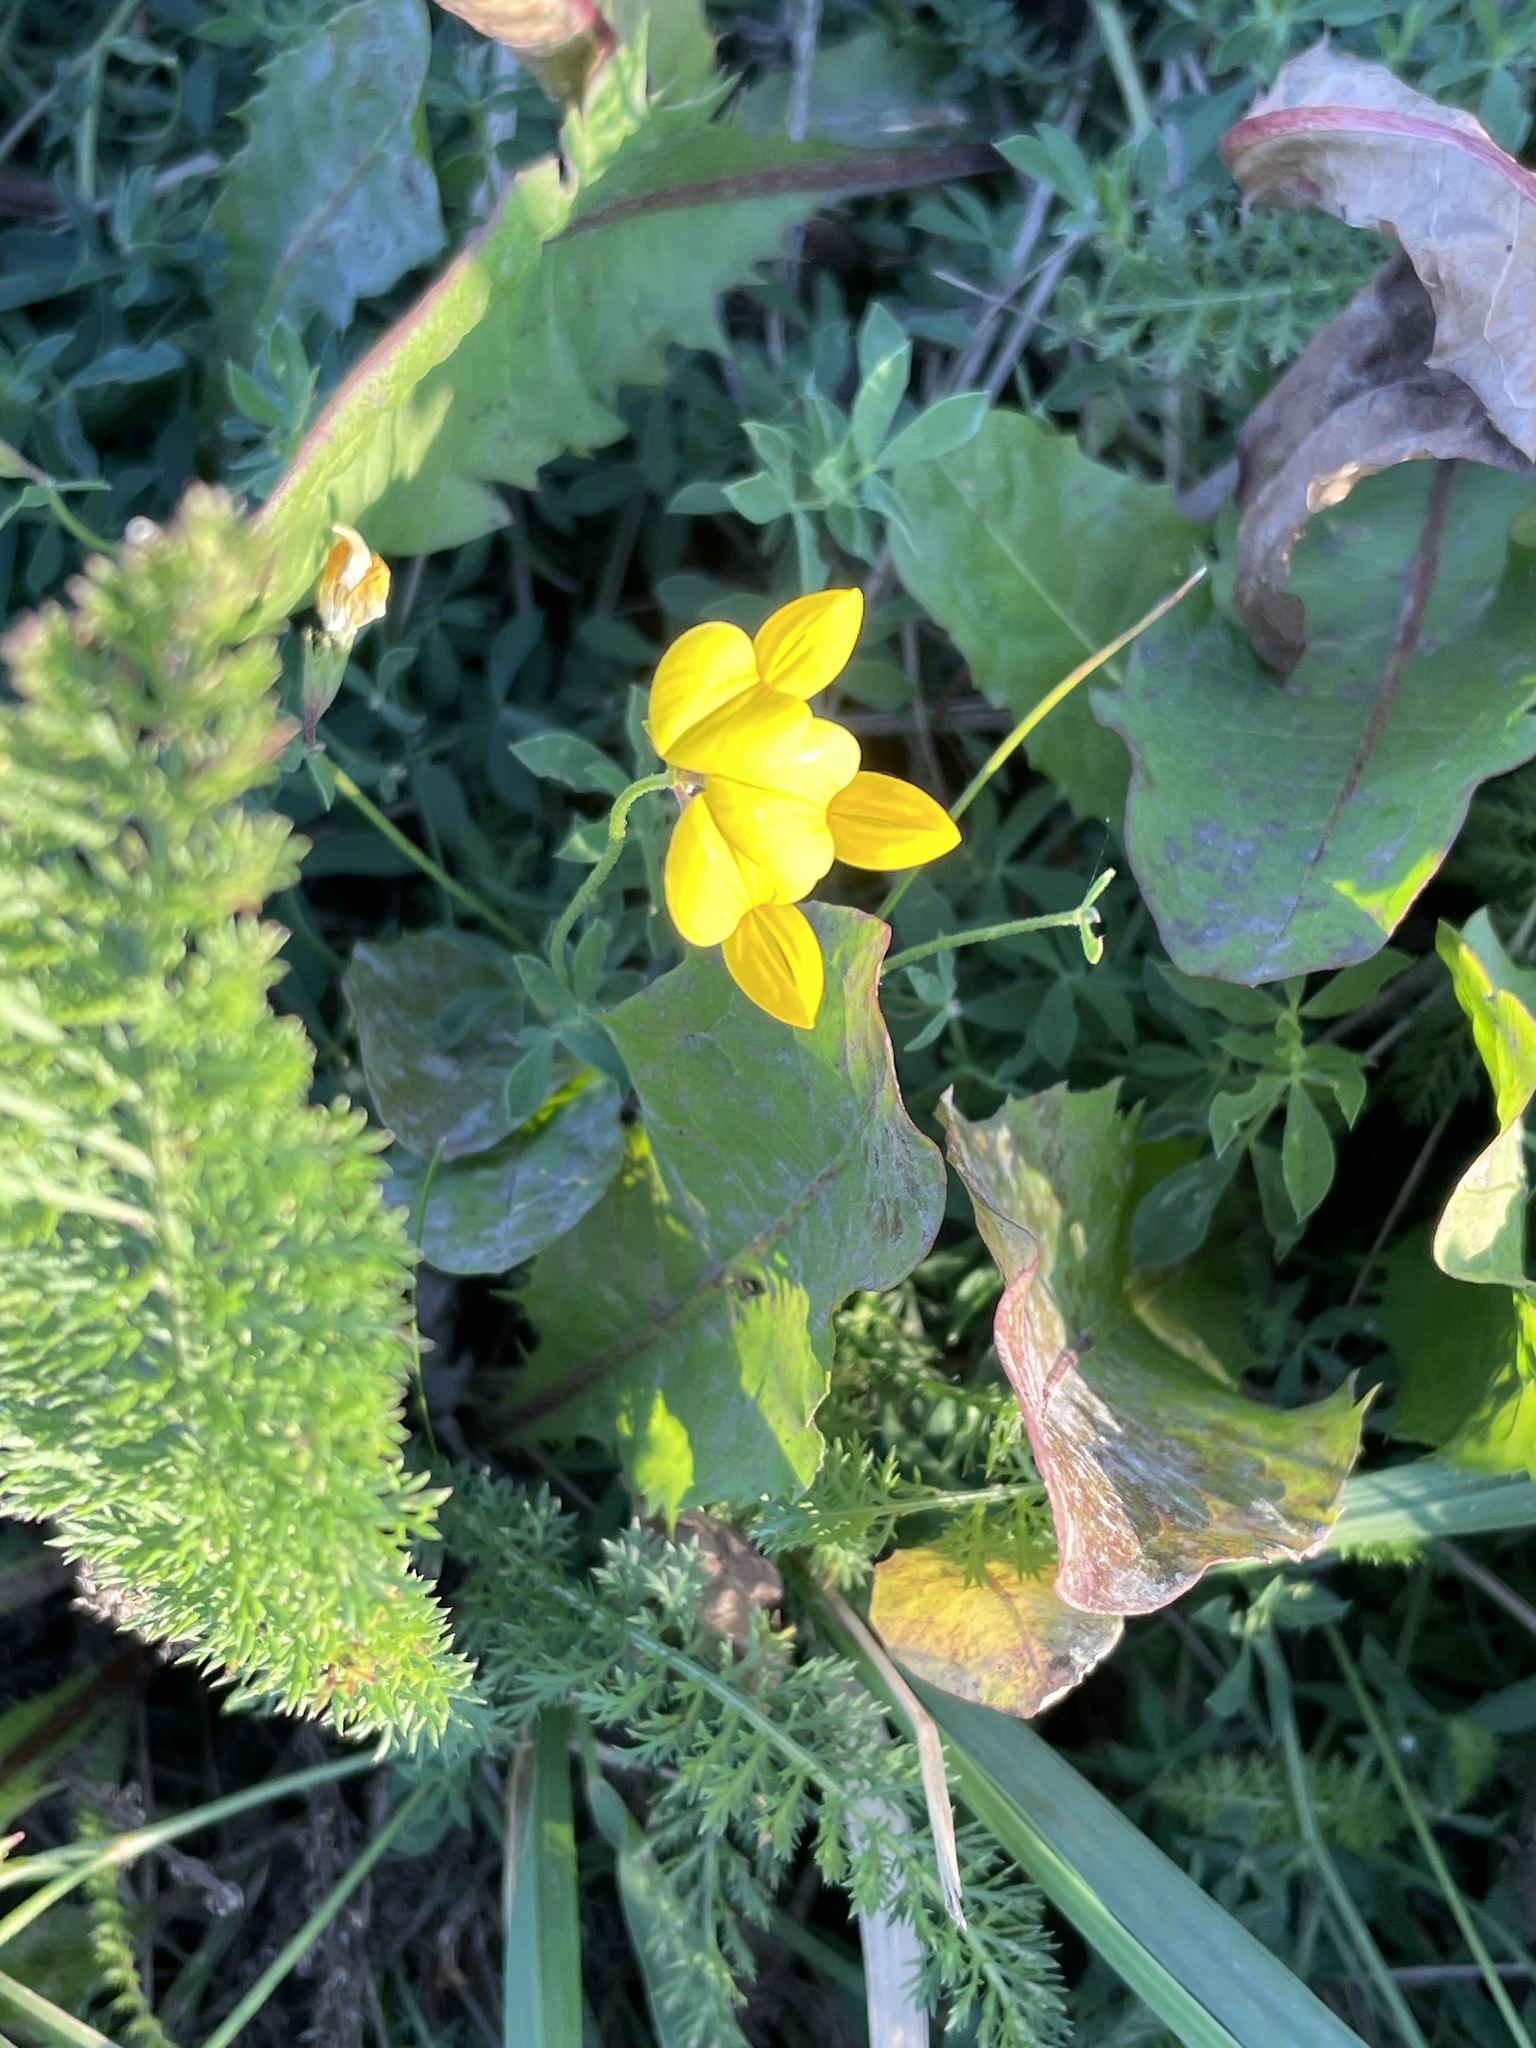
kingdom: Plantae
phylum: Tracheophyta
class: Magnoliopsida
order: Fabales
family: Fabaceae
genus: Lotus
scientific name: Lotus corniculatus
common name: Common bird's-foot-trefoil
